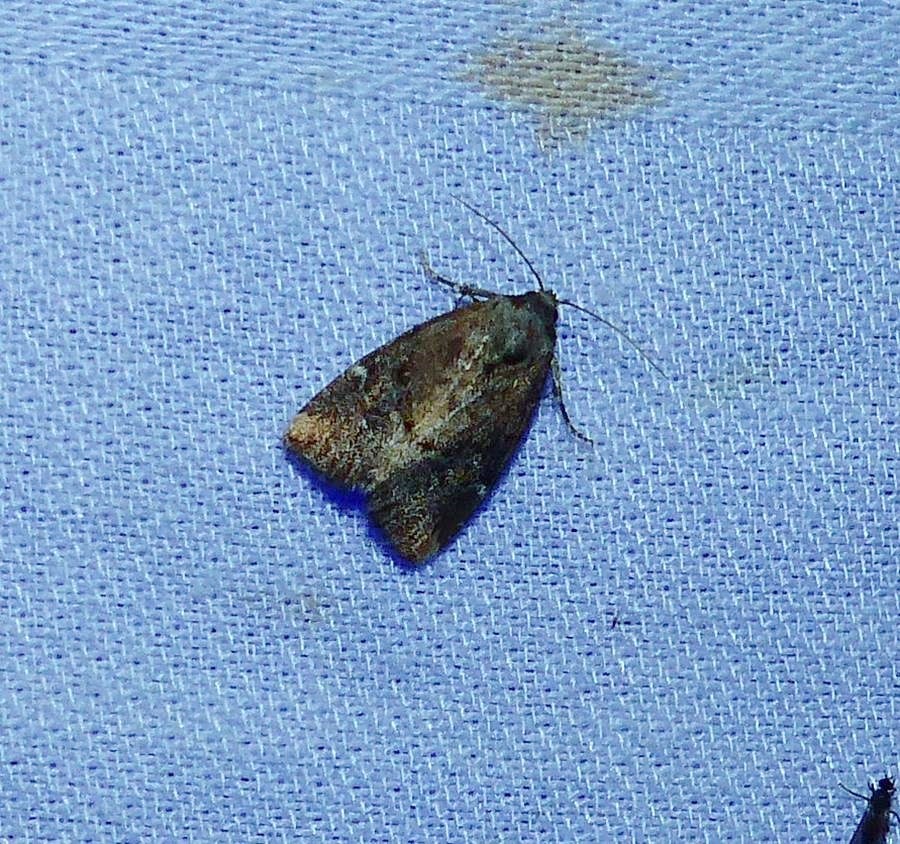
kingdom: Animalia
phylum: Arthropoda
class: Insecta
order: Lepidoptera
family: Noctuidae
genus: Elaphria
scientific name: Elaphria versicolor
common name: Fir harlequin
